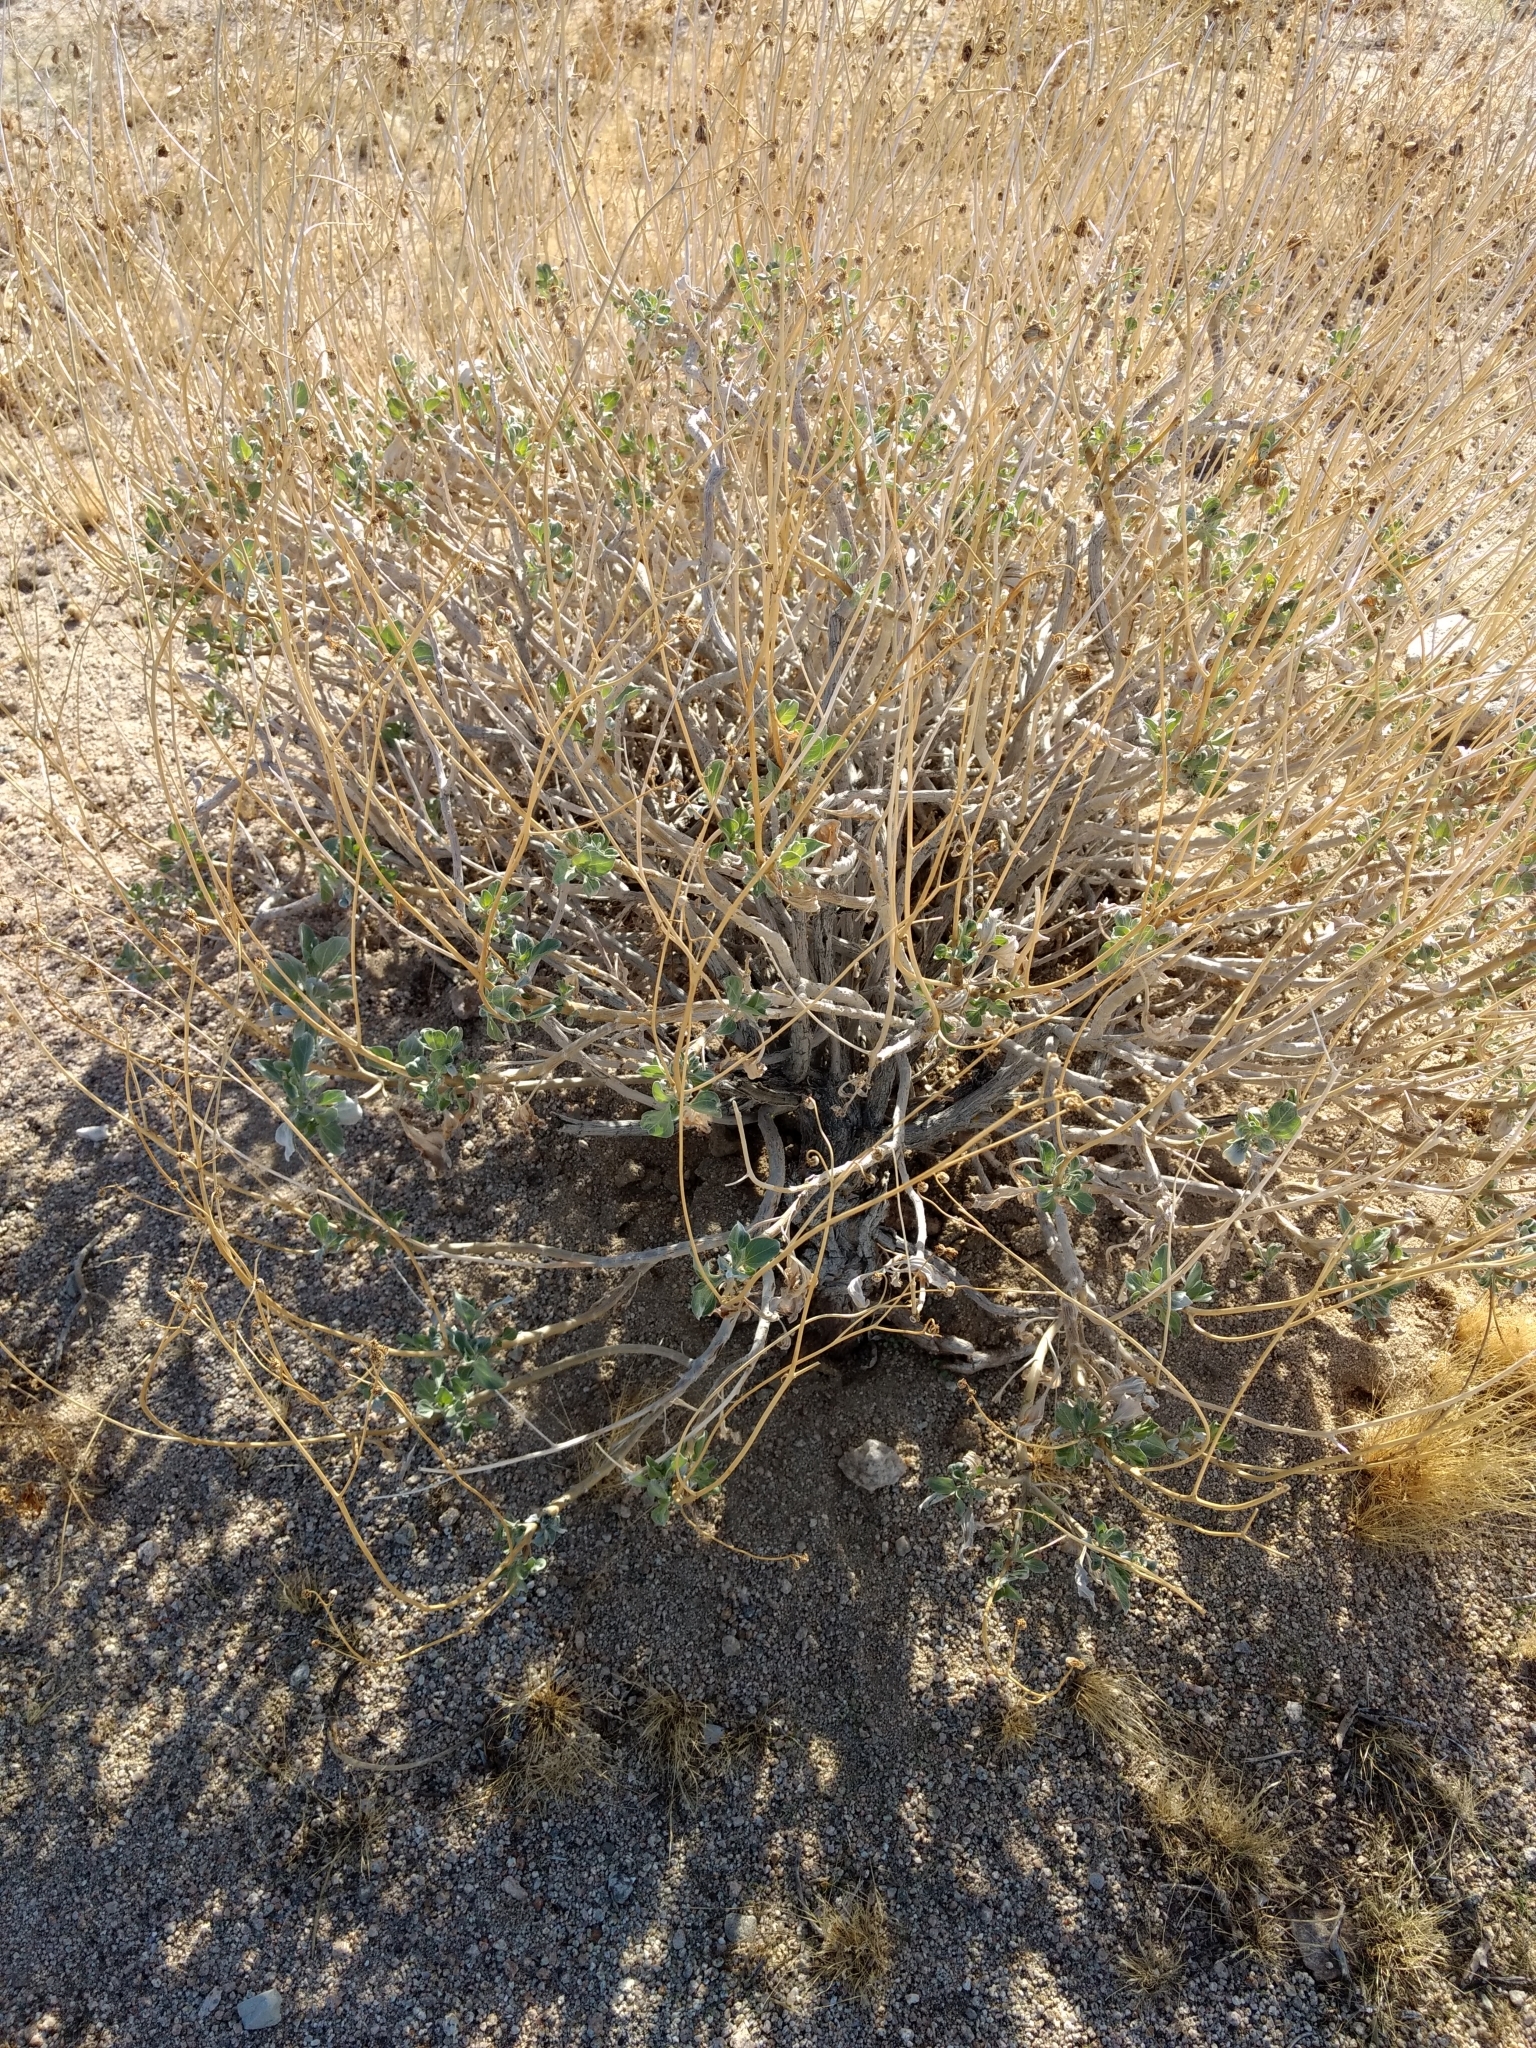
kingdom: Plantae
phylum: Tracheophyta
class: Magnoliopsida
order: Asterales
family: Asteraceae
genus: Encelia
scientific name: Encelia farinosa
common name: Brittlebush
